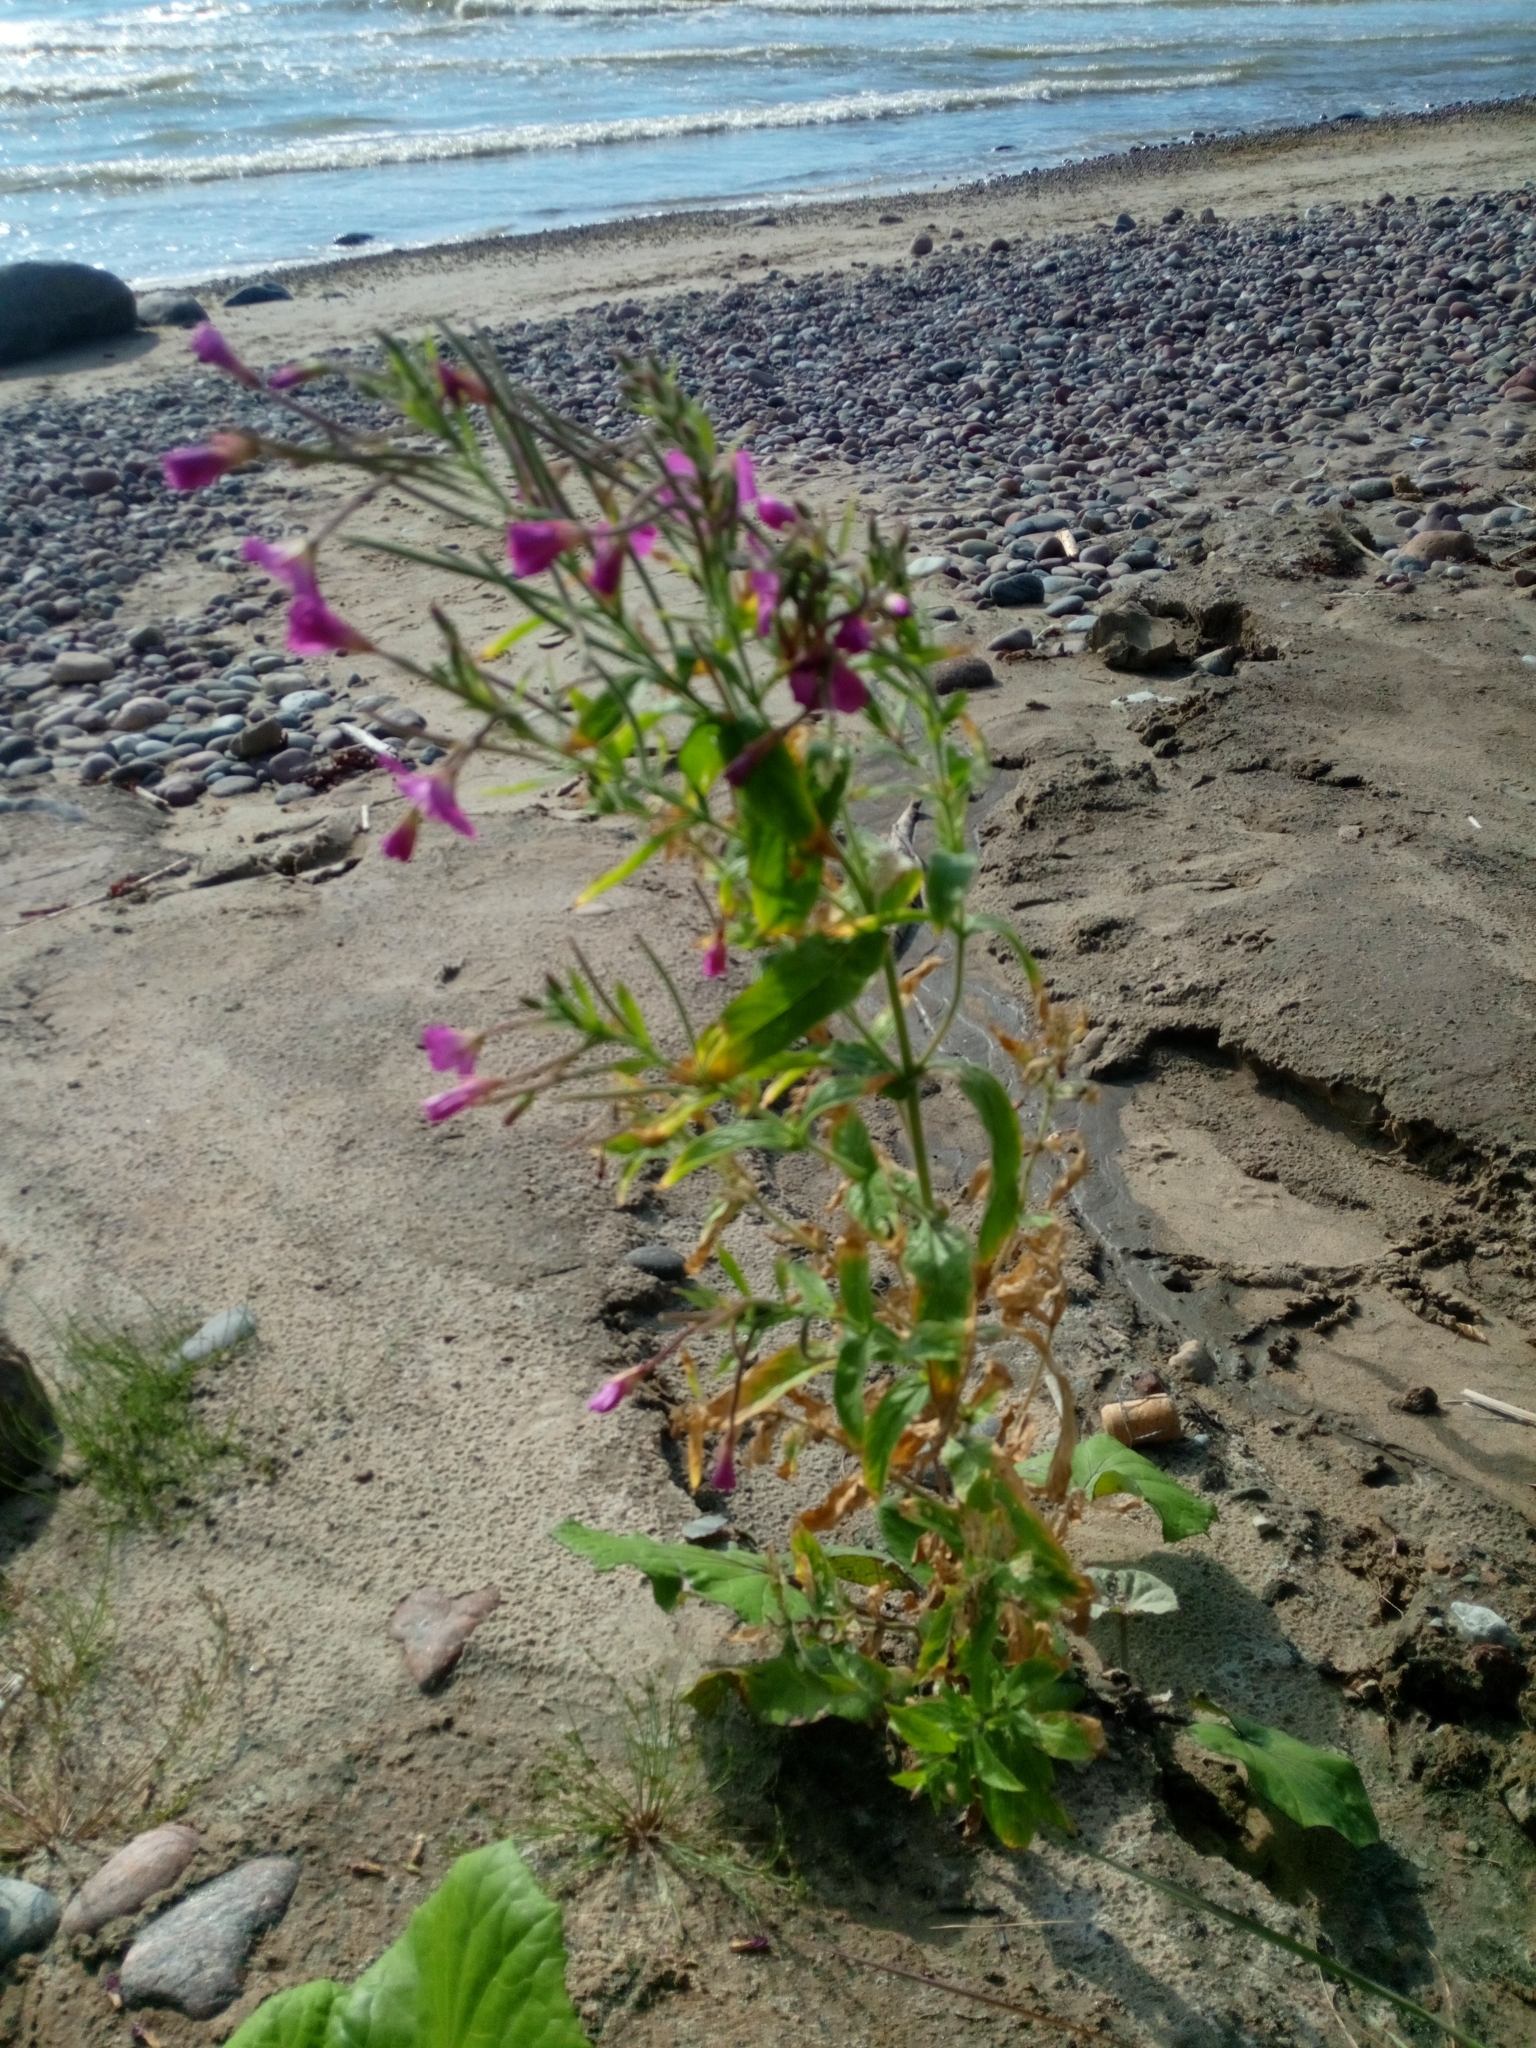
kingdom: Plantae
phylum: Tracheophyta
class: Magnoliopsida
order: Myrtales
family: Onagraceae
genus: Epilobium
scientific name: Epilobium hirsutum
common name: Great willowherb
